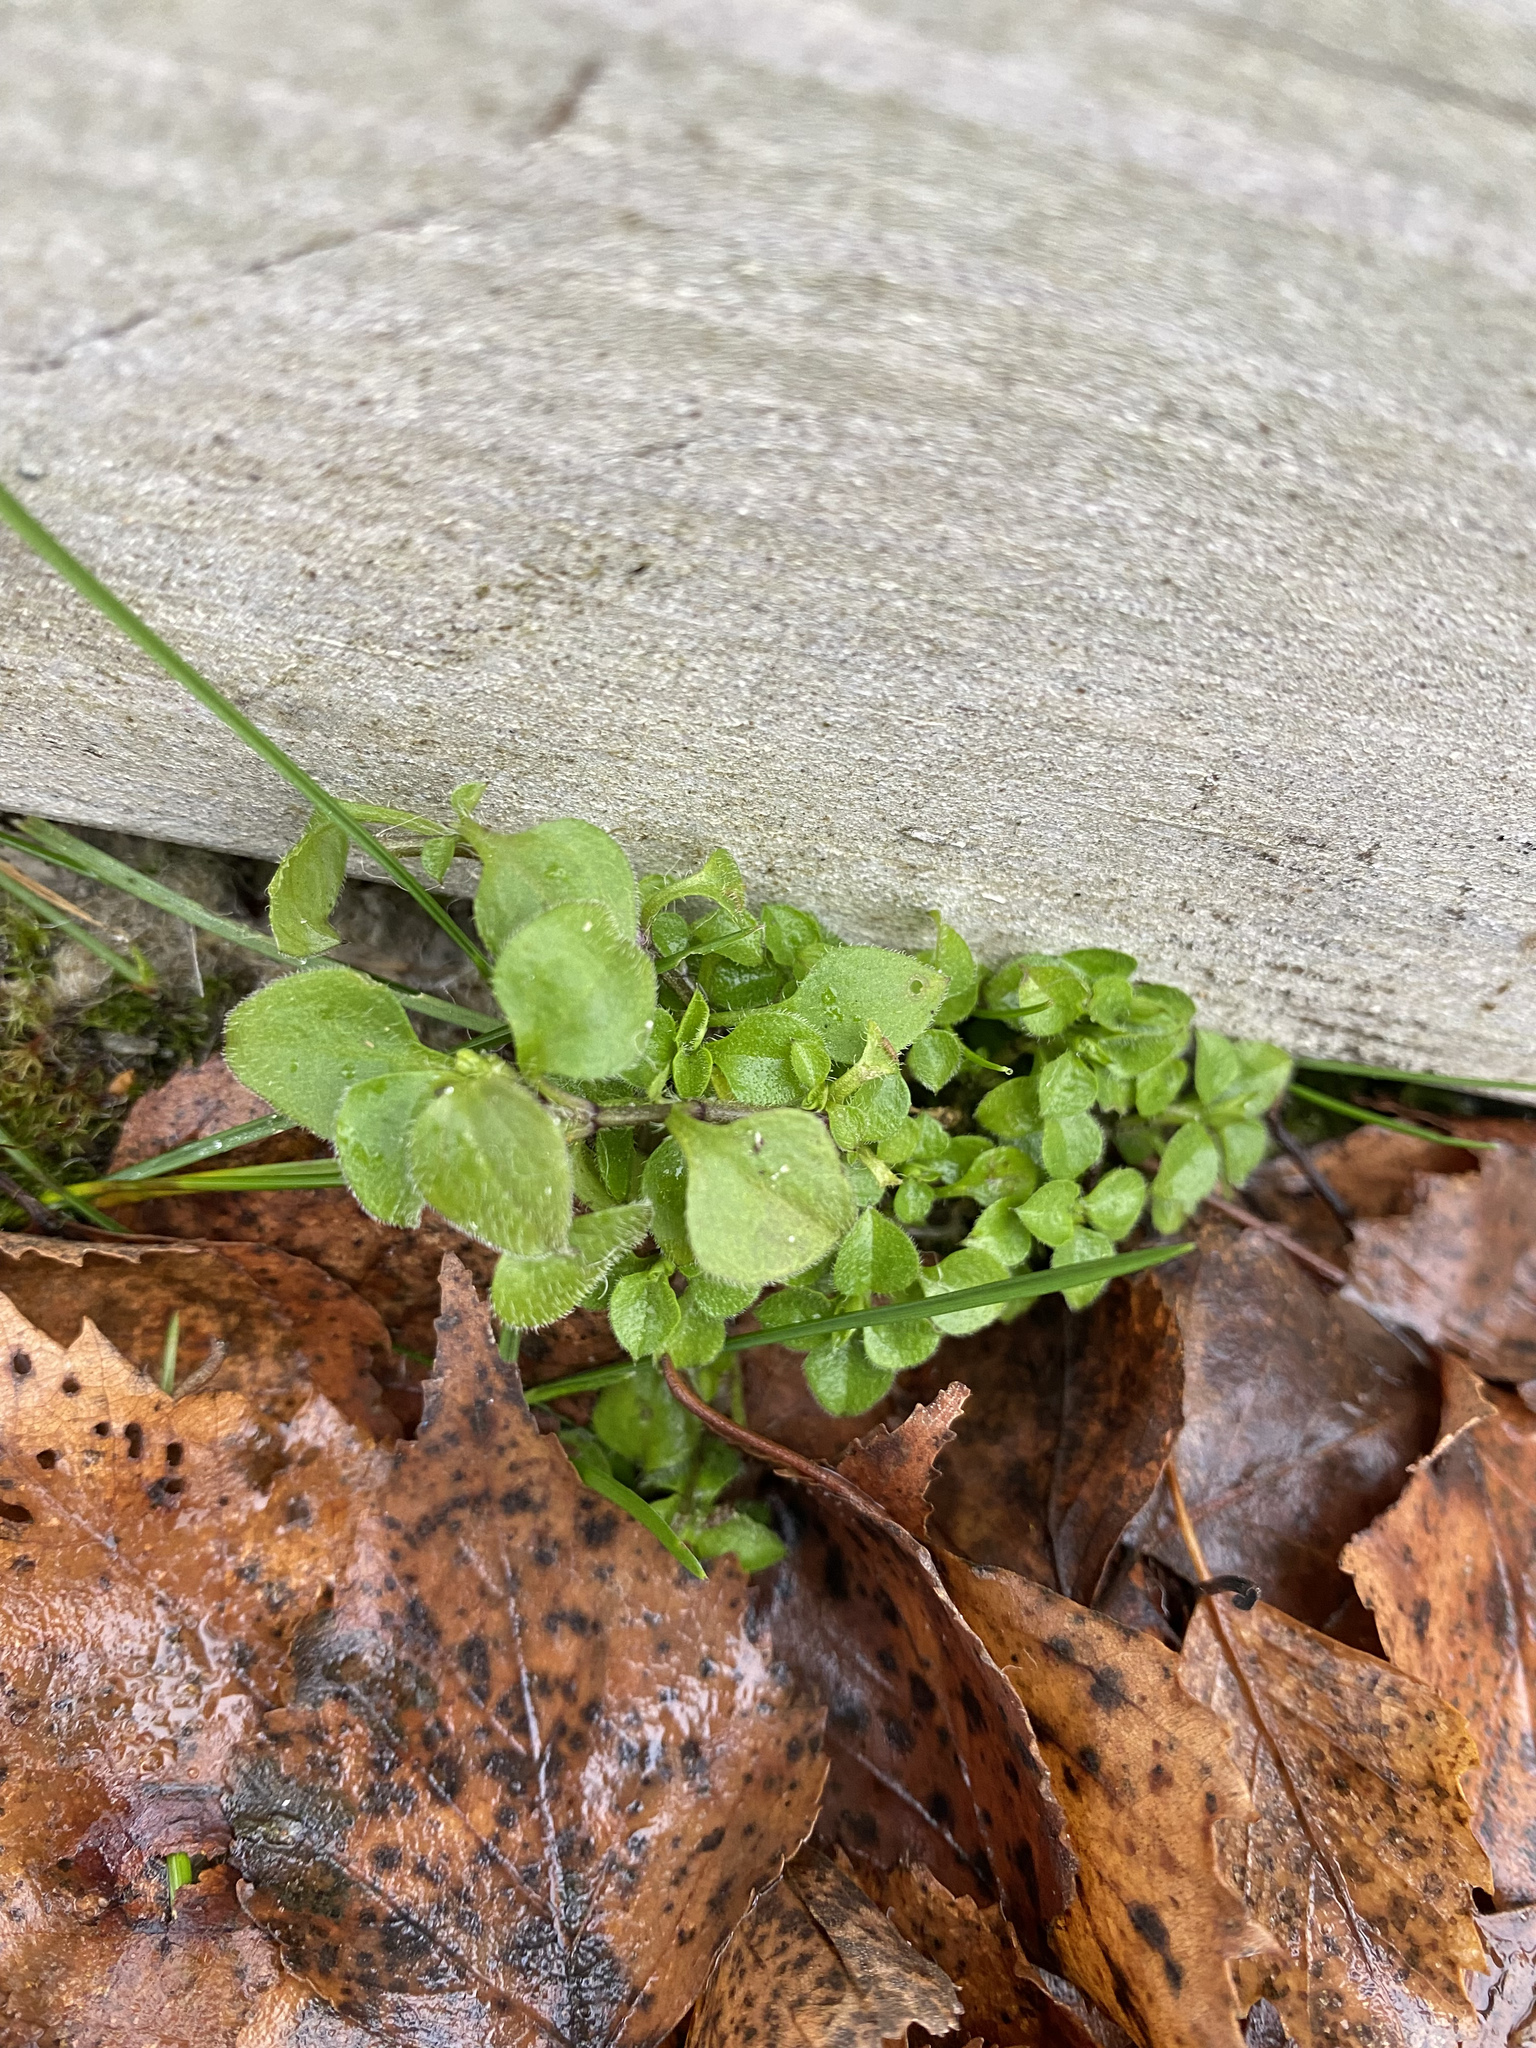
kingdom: Plantae
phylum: Tracheophyta
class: Magnoliopsida
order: Caryophyllales
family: Caryophyllaceae
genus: Moehringia
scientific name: Moehringia trinervia
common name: Three-nerved sandwort
